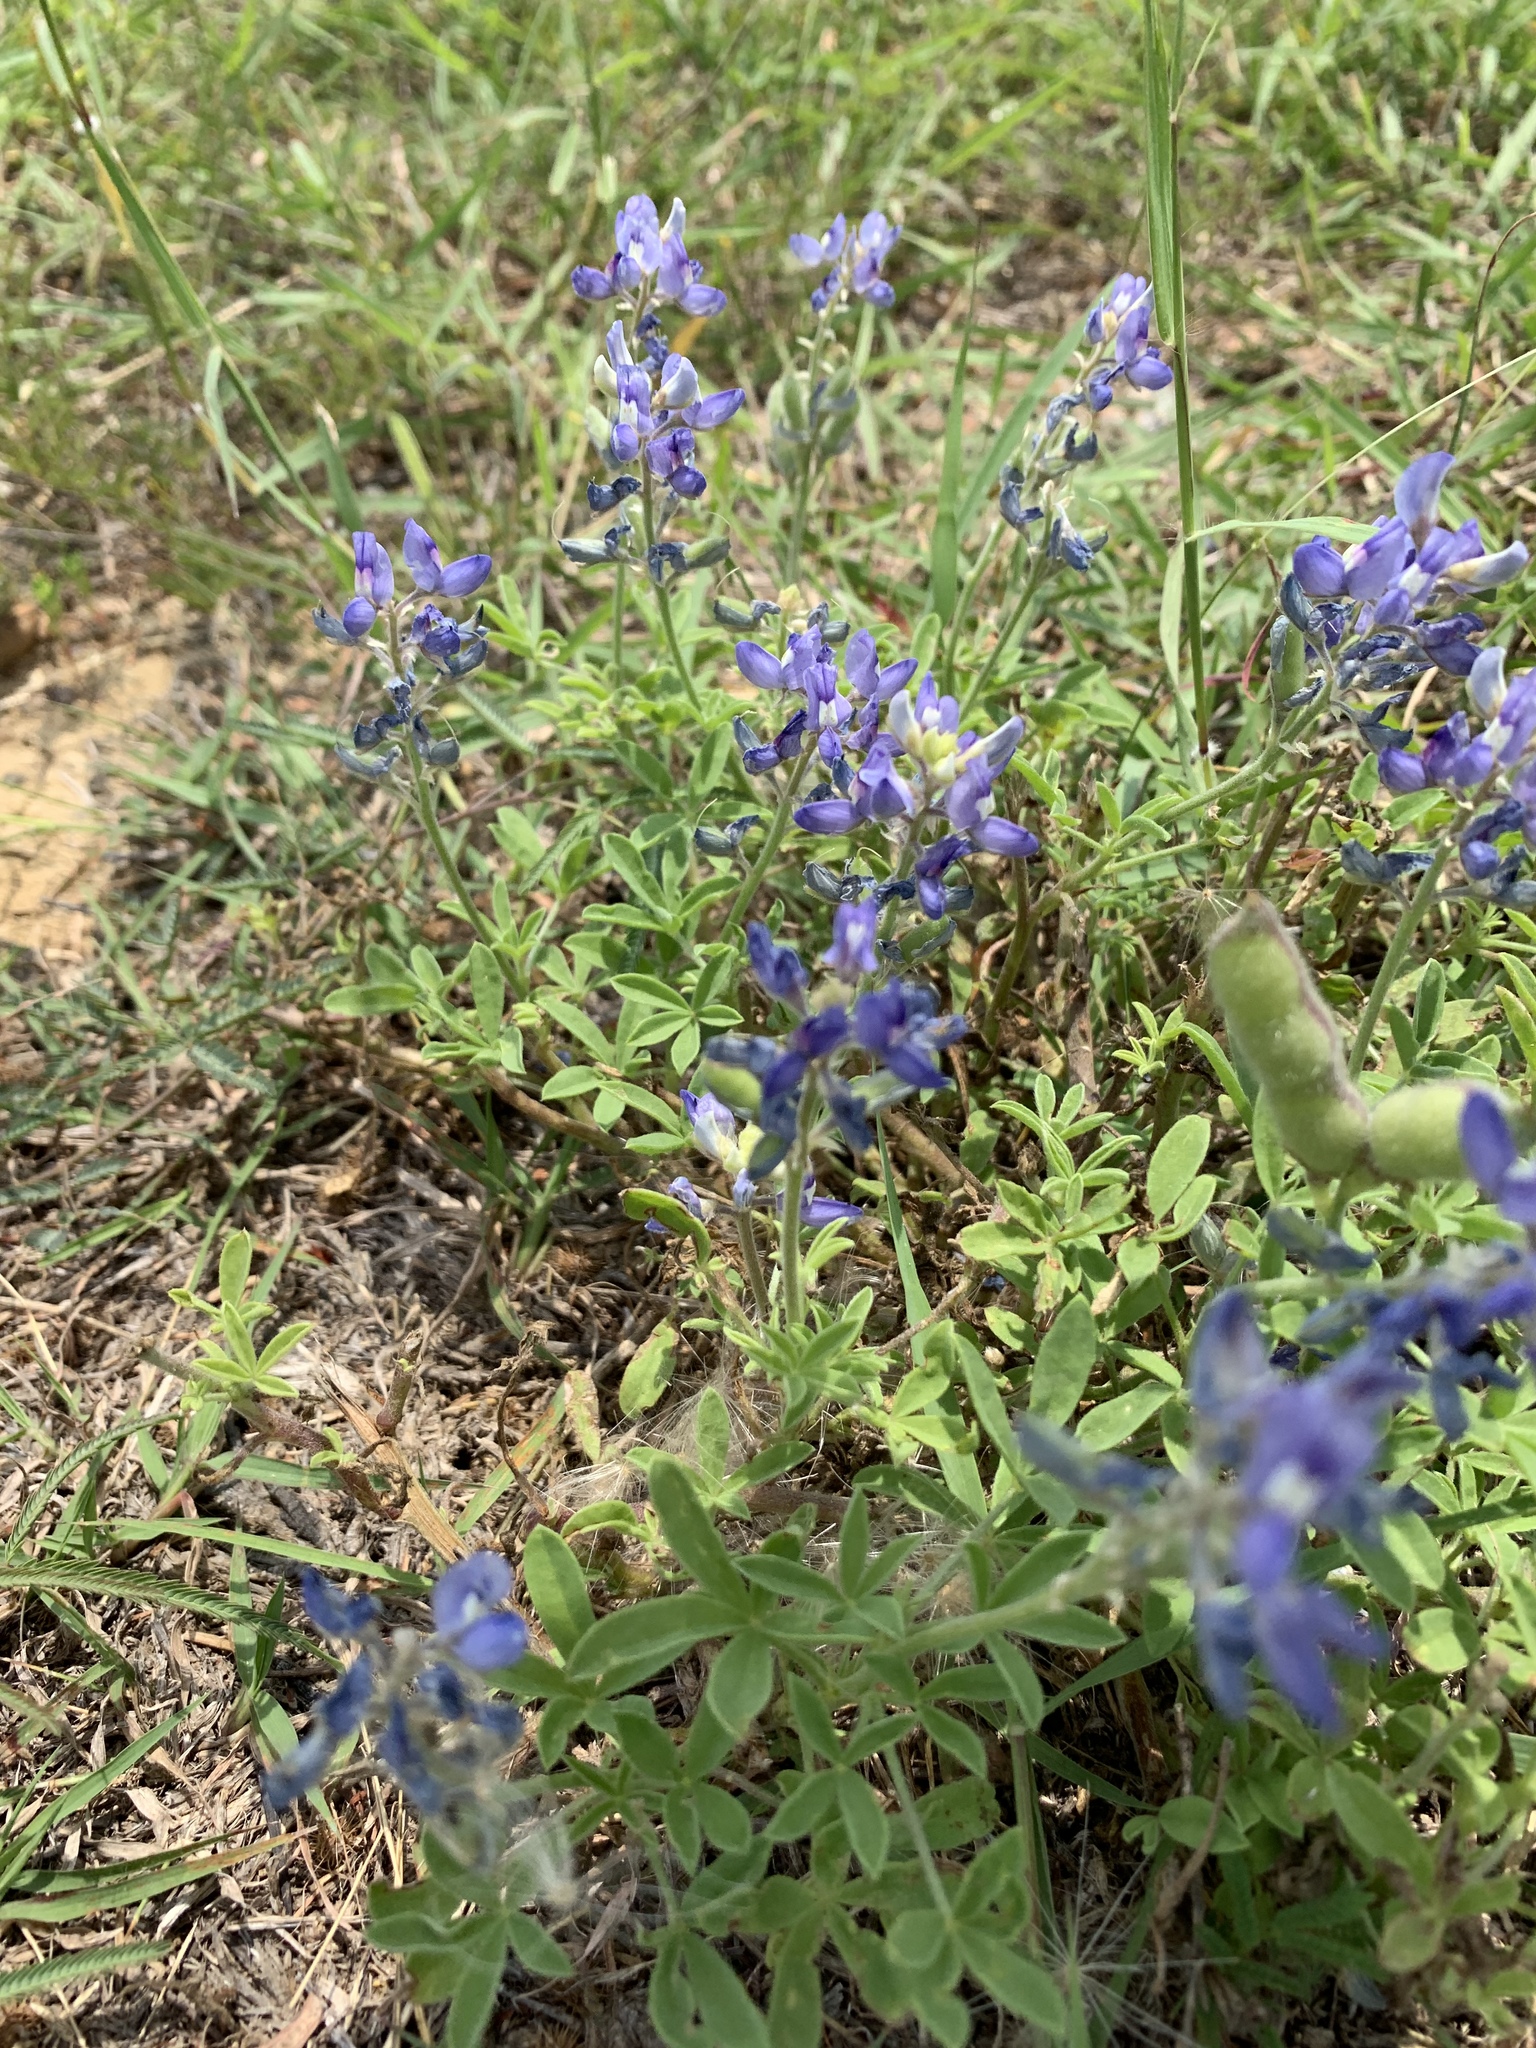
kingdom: Plantae
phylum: Tracheophyta
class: Magnoliopsida
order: Fabales
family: Fabaceae
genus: Lupinus
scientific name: Lupinus texensis
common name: Texas bluebonnet
